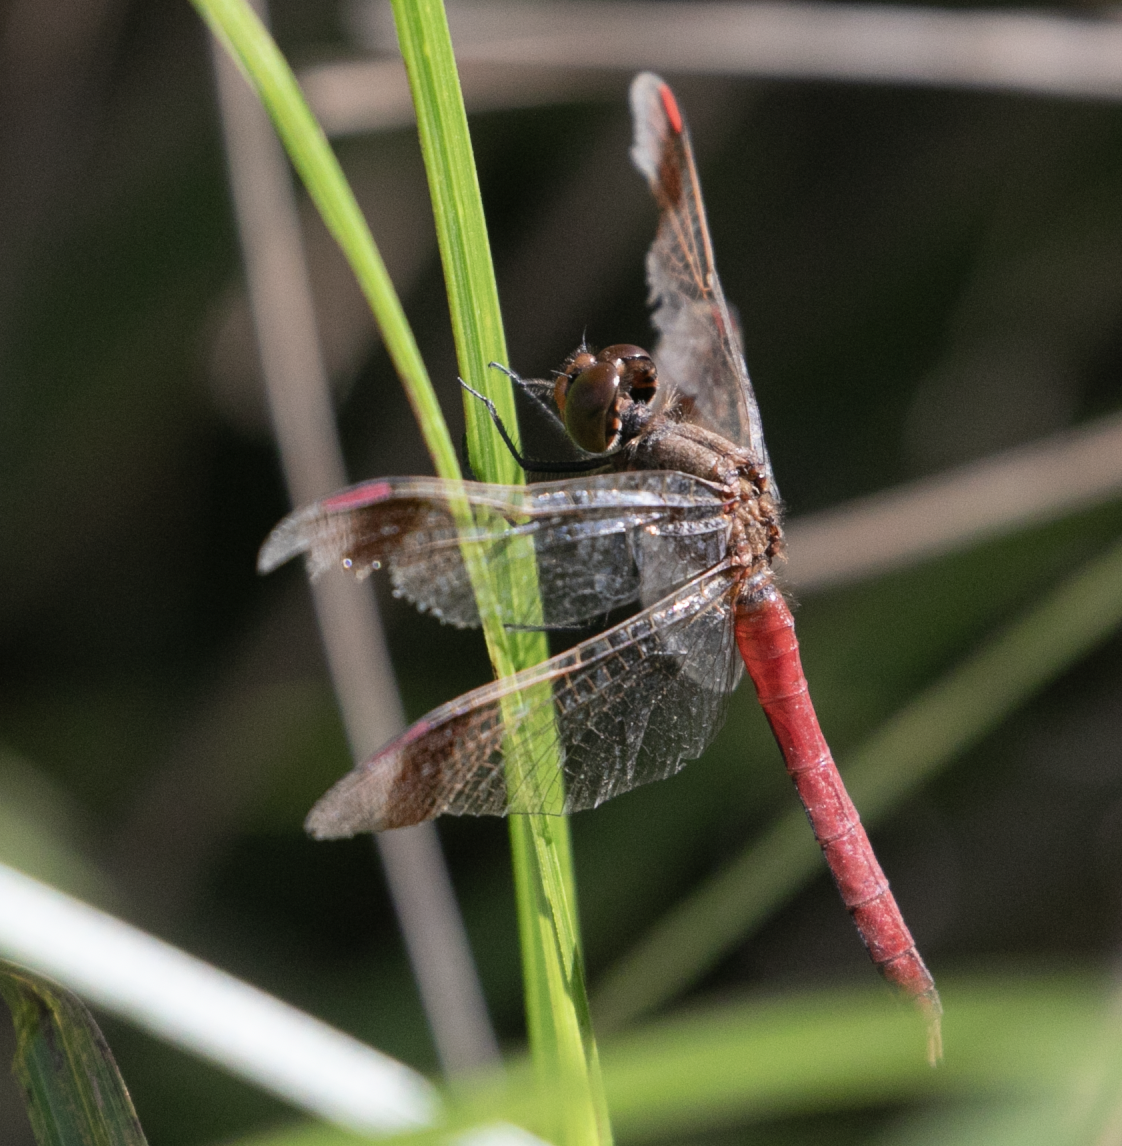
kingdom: Animalia
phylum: Arthropoda
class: Insecta
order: Odonata
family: Libellulidae
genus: Sympetrum
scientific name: Sympetrum pedemontanum
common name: Banded darter
